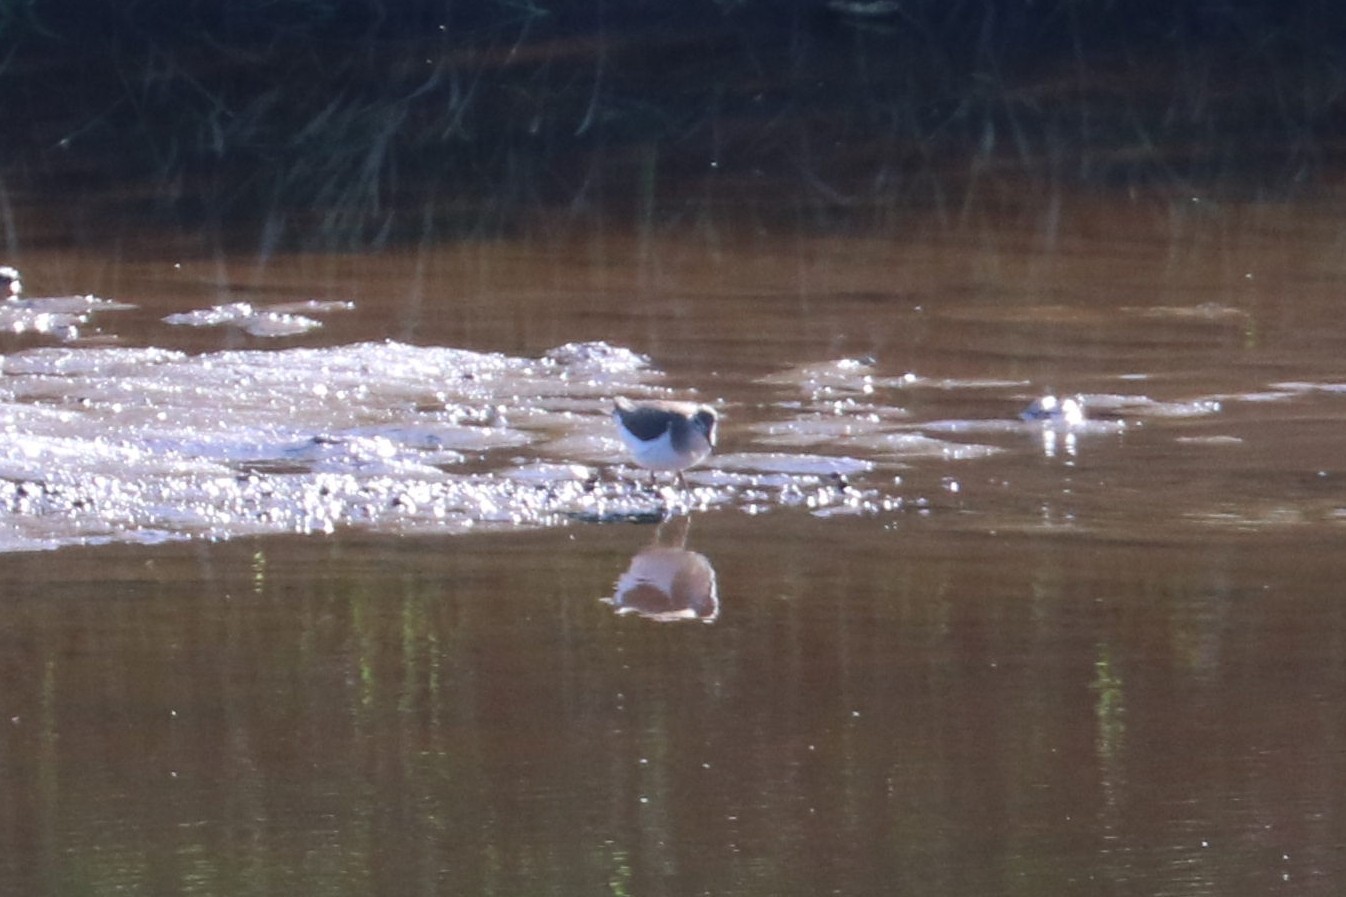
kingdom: Animalia
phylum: Chordata
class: Aves
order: Charadriiformes
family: Scolopacidae
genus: Actitis
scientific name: Actitis hypoleucos
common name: Common sandpiper
